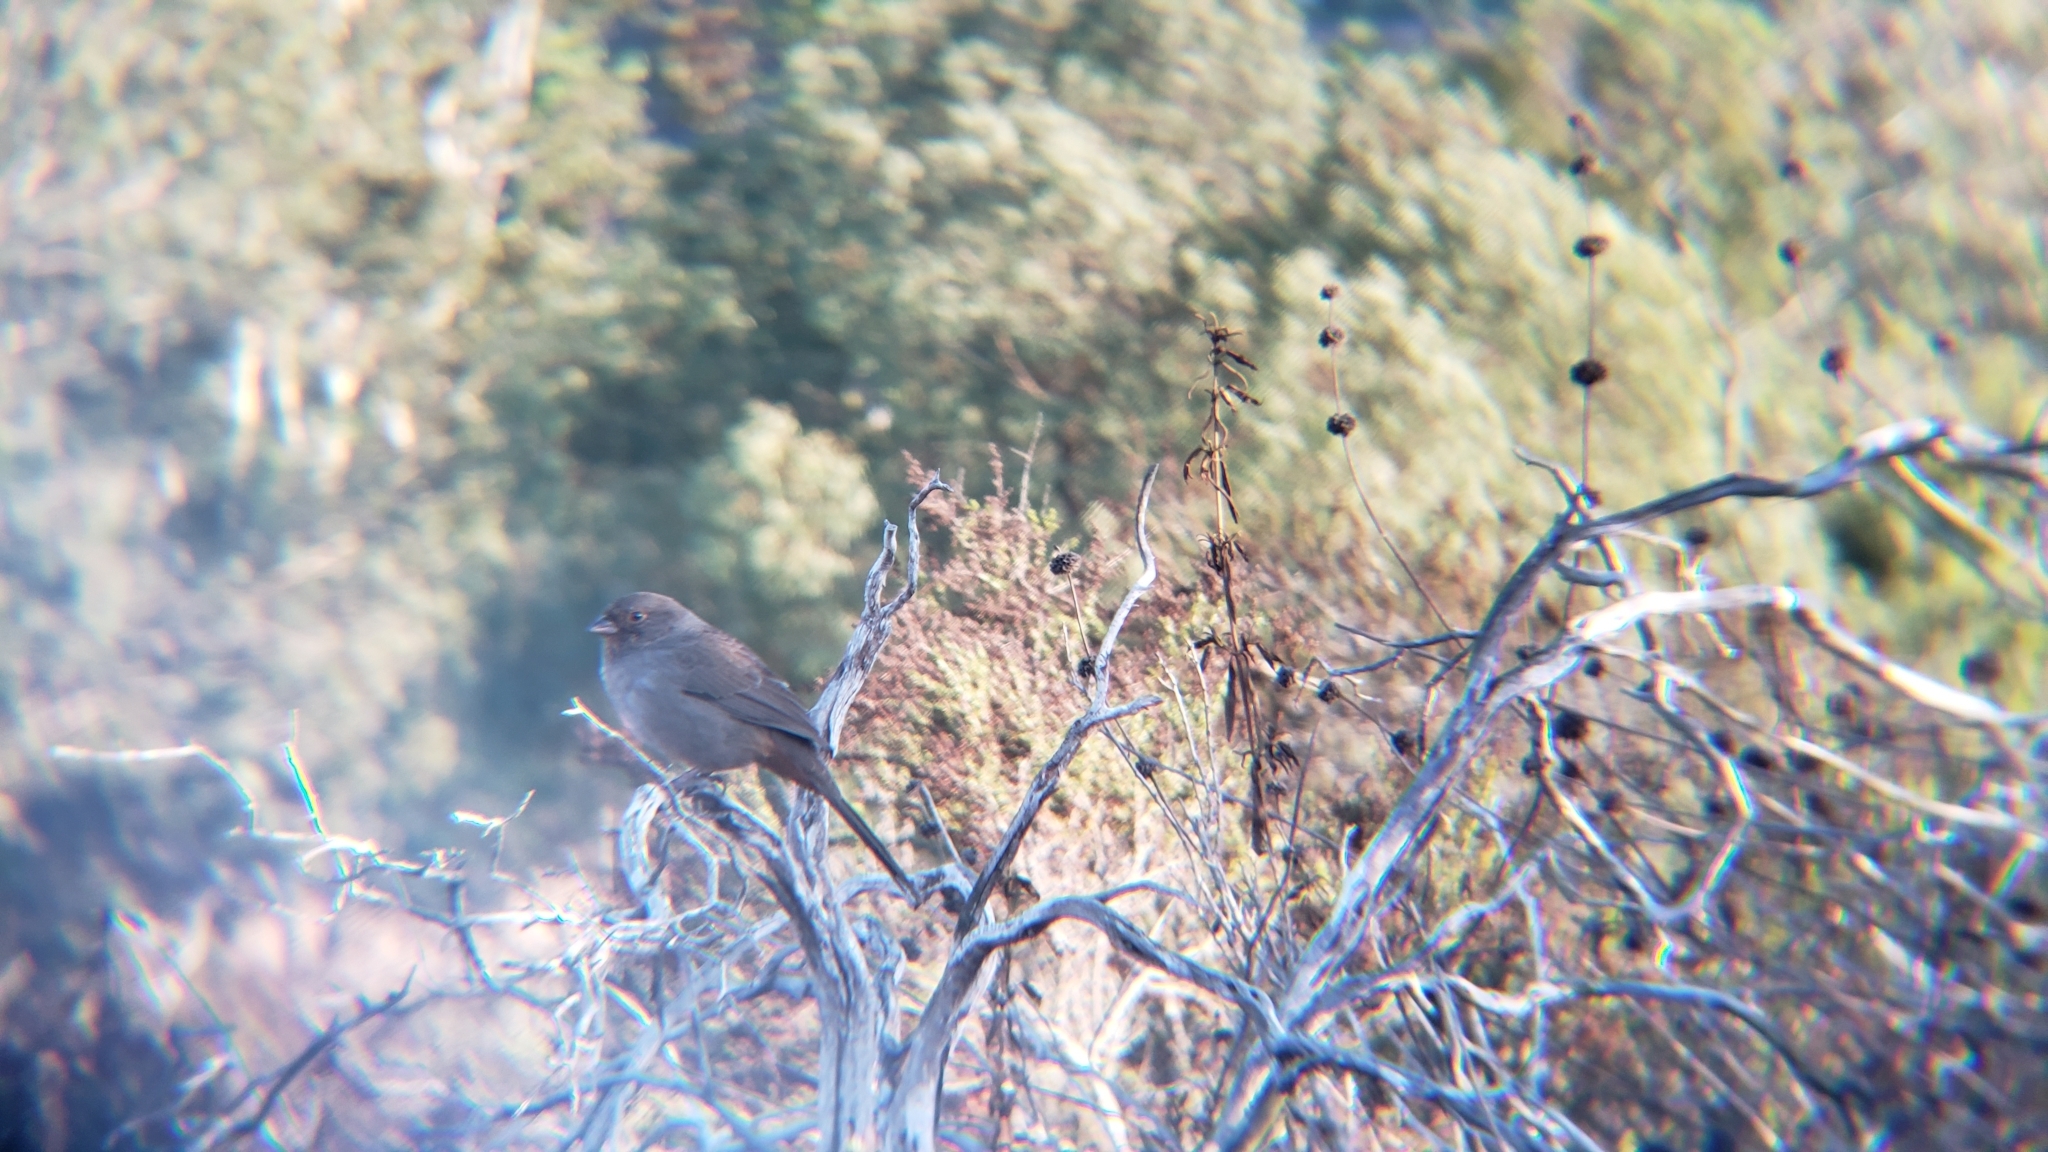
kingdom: Animalia
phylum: Chordata
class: Aves
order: Passeriformes
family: Passerellidae
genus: Melozone
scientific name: Melozone crissalis
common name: California towhee
